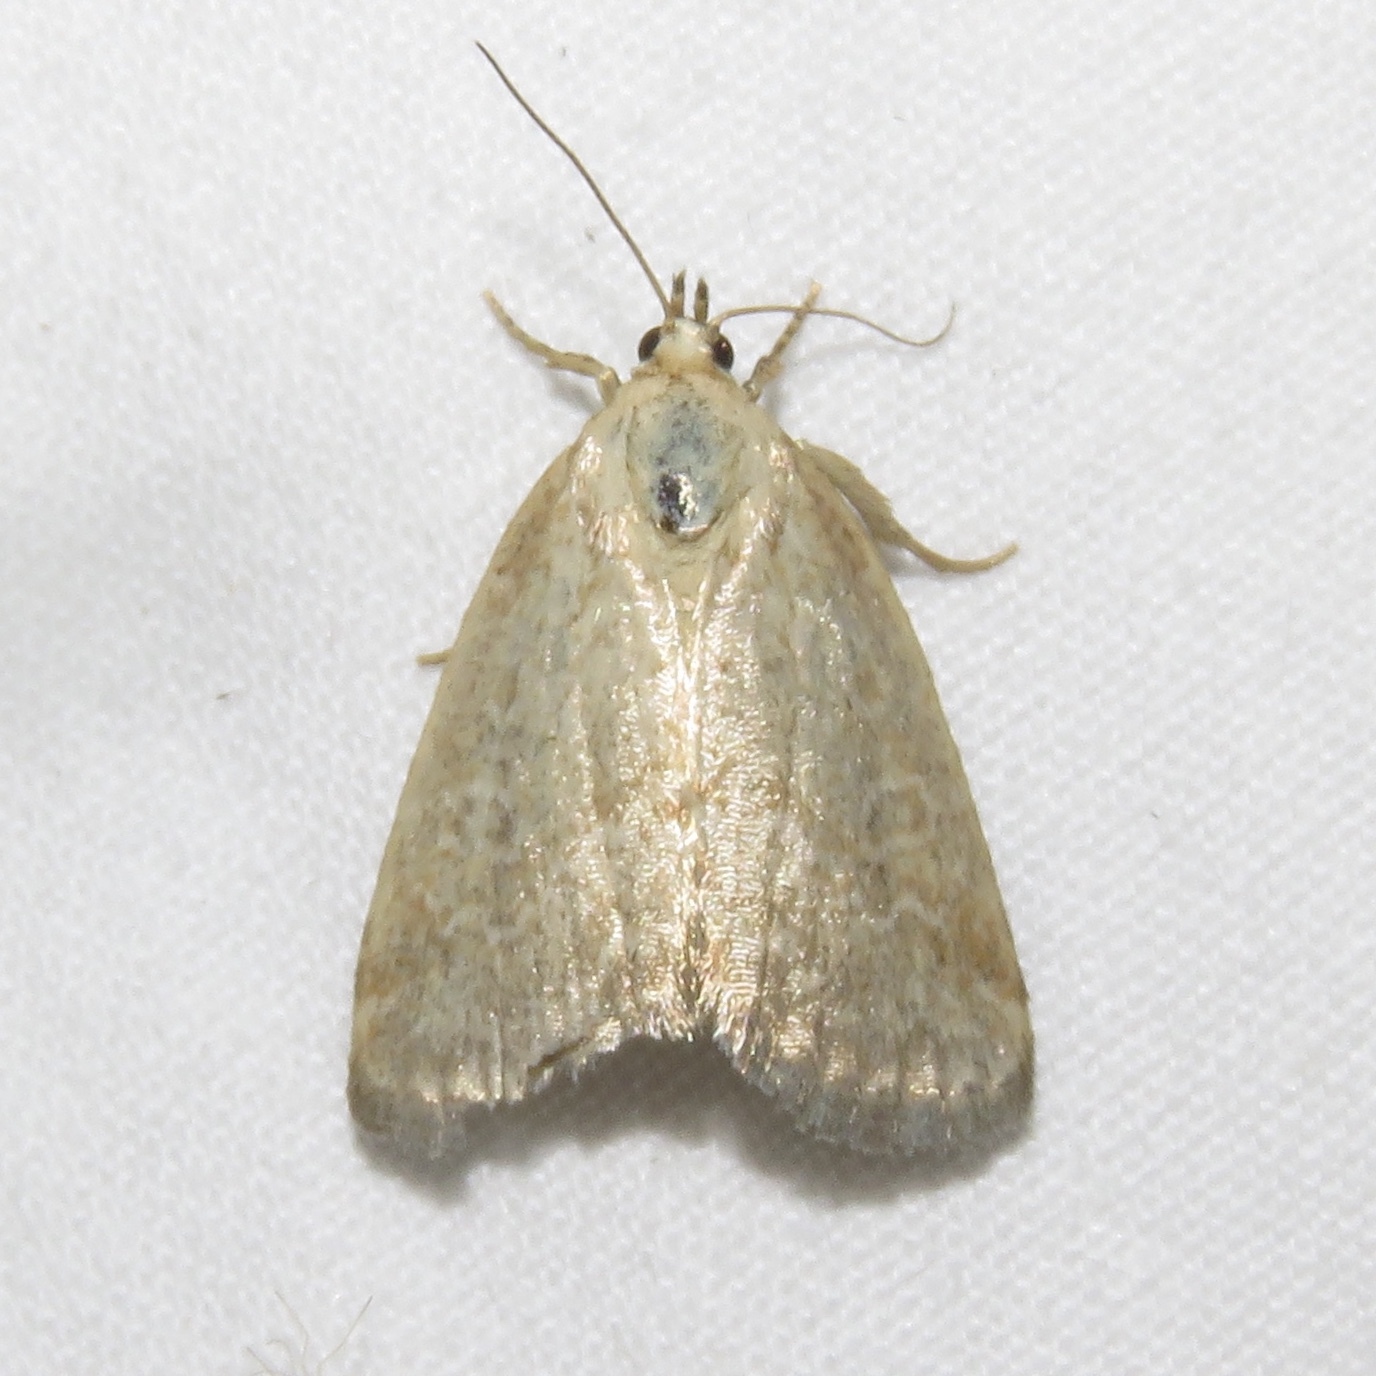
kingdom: Animalia
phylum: Arthropoda
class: Insecta
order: Lepidoptera
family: Noctuidae
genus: Protodeltote
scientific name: Protodeltote albidula
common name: Pale glyph
